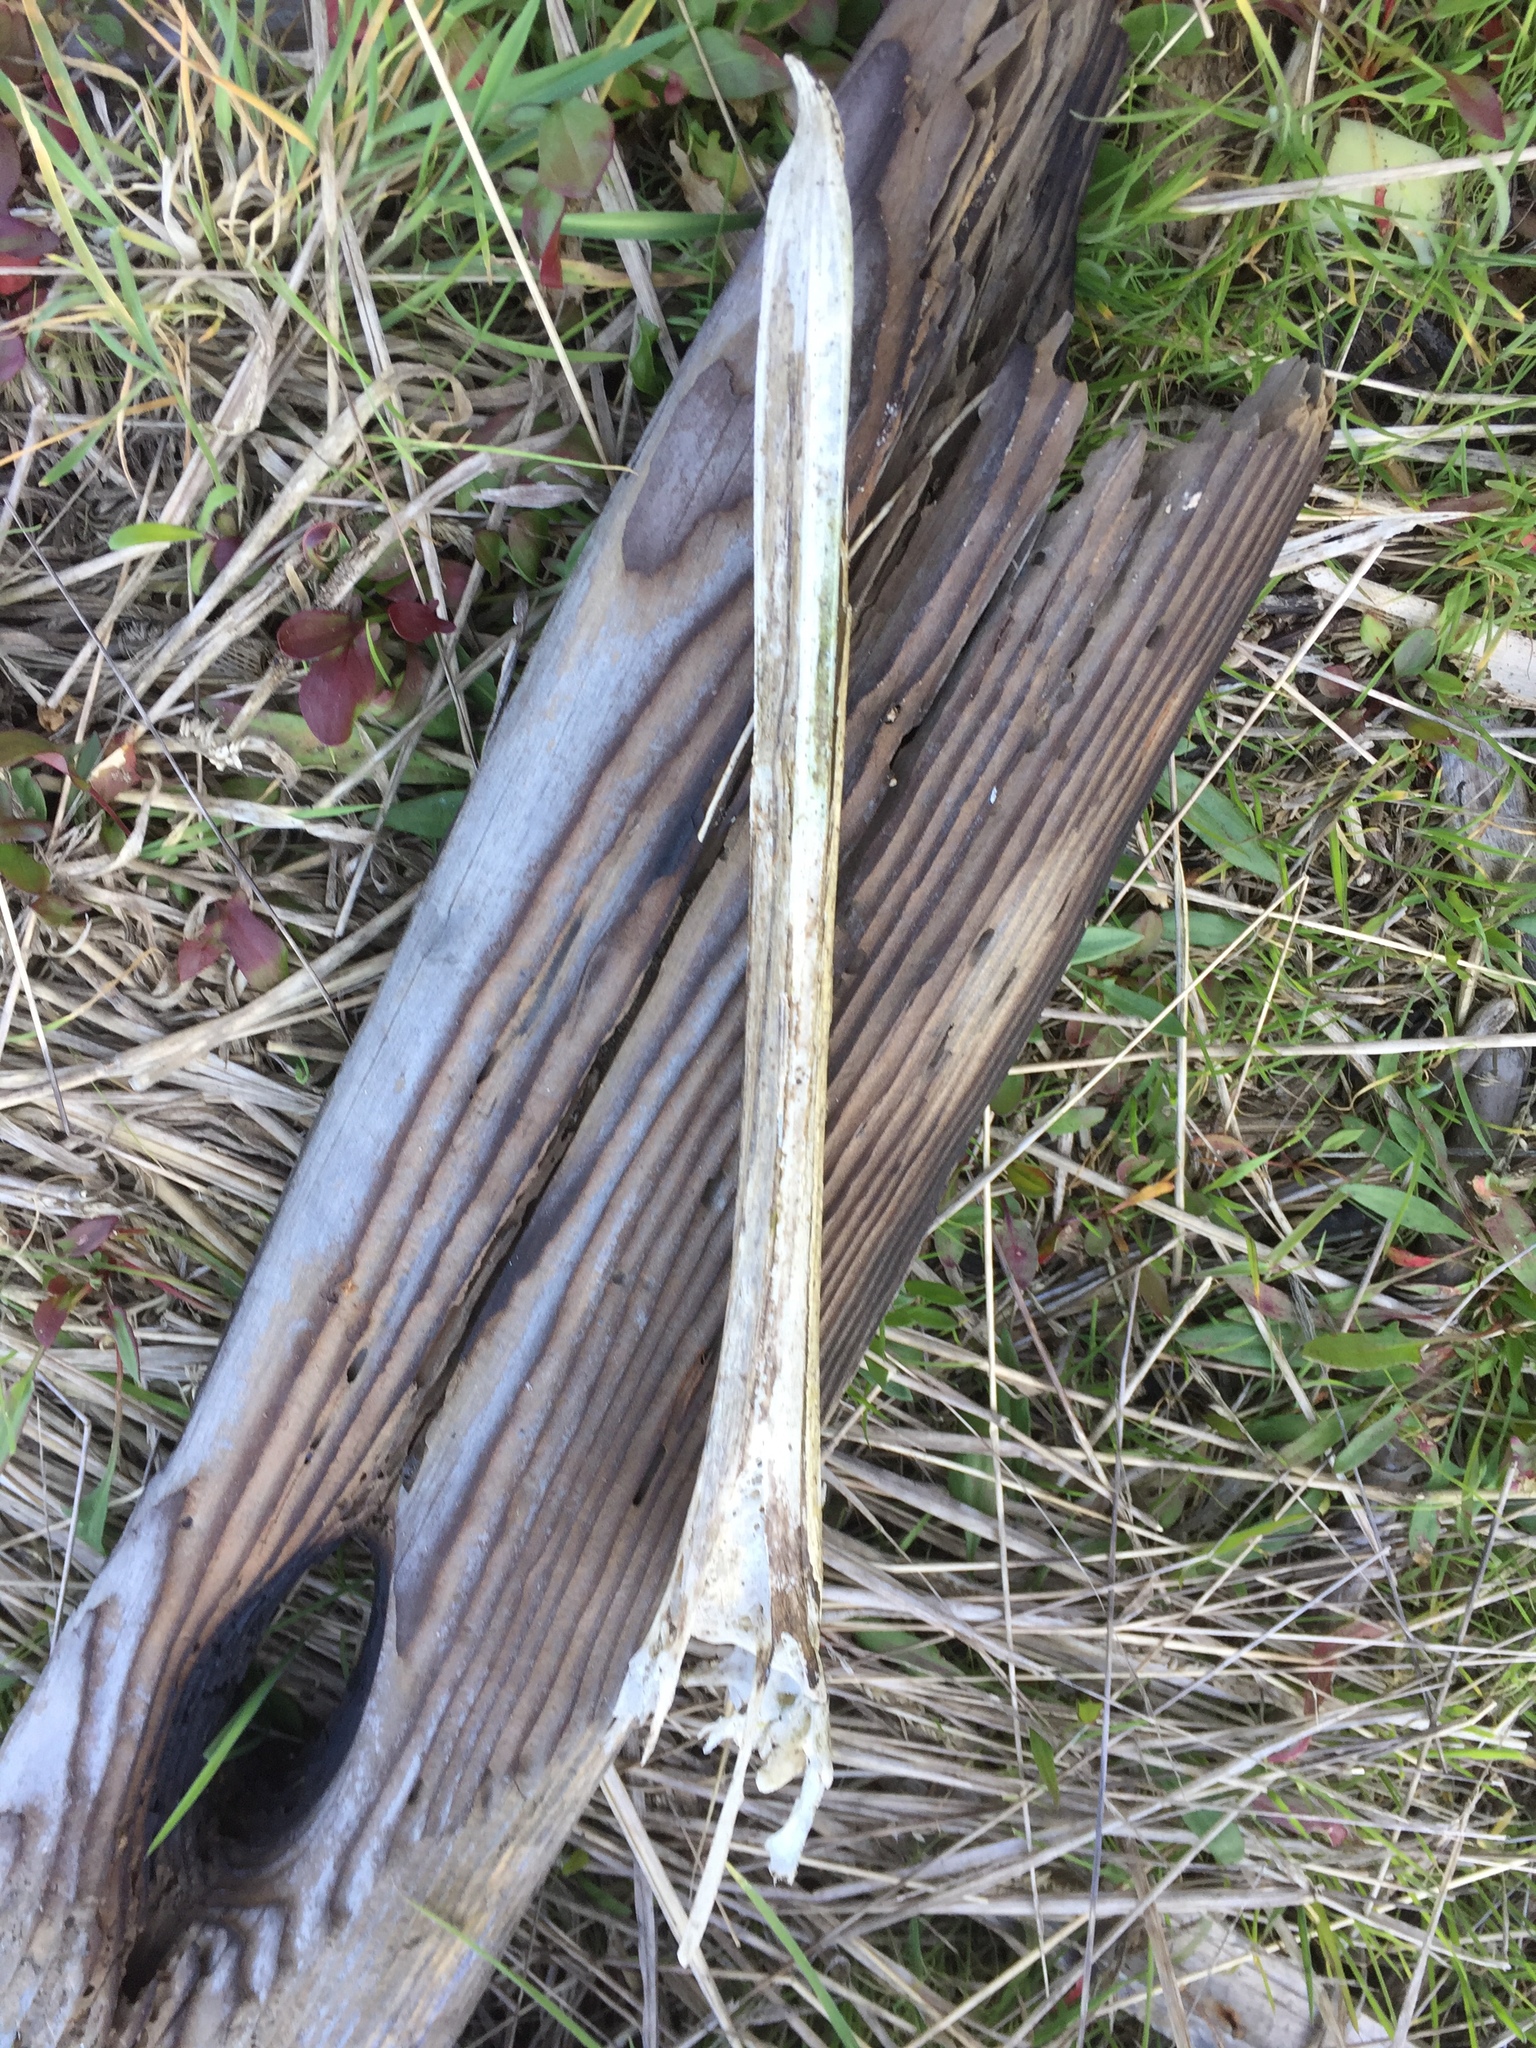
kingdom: Animalia
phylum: Chordata
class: Aves
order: Pelecaniformes
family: Pelecanidae
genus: Pelecanus
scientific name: Pelecanus occidentalis
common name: Brown pelican
